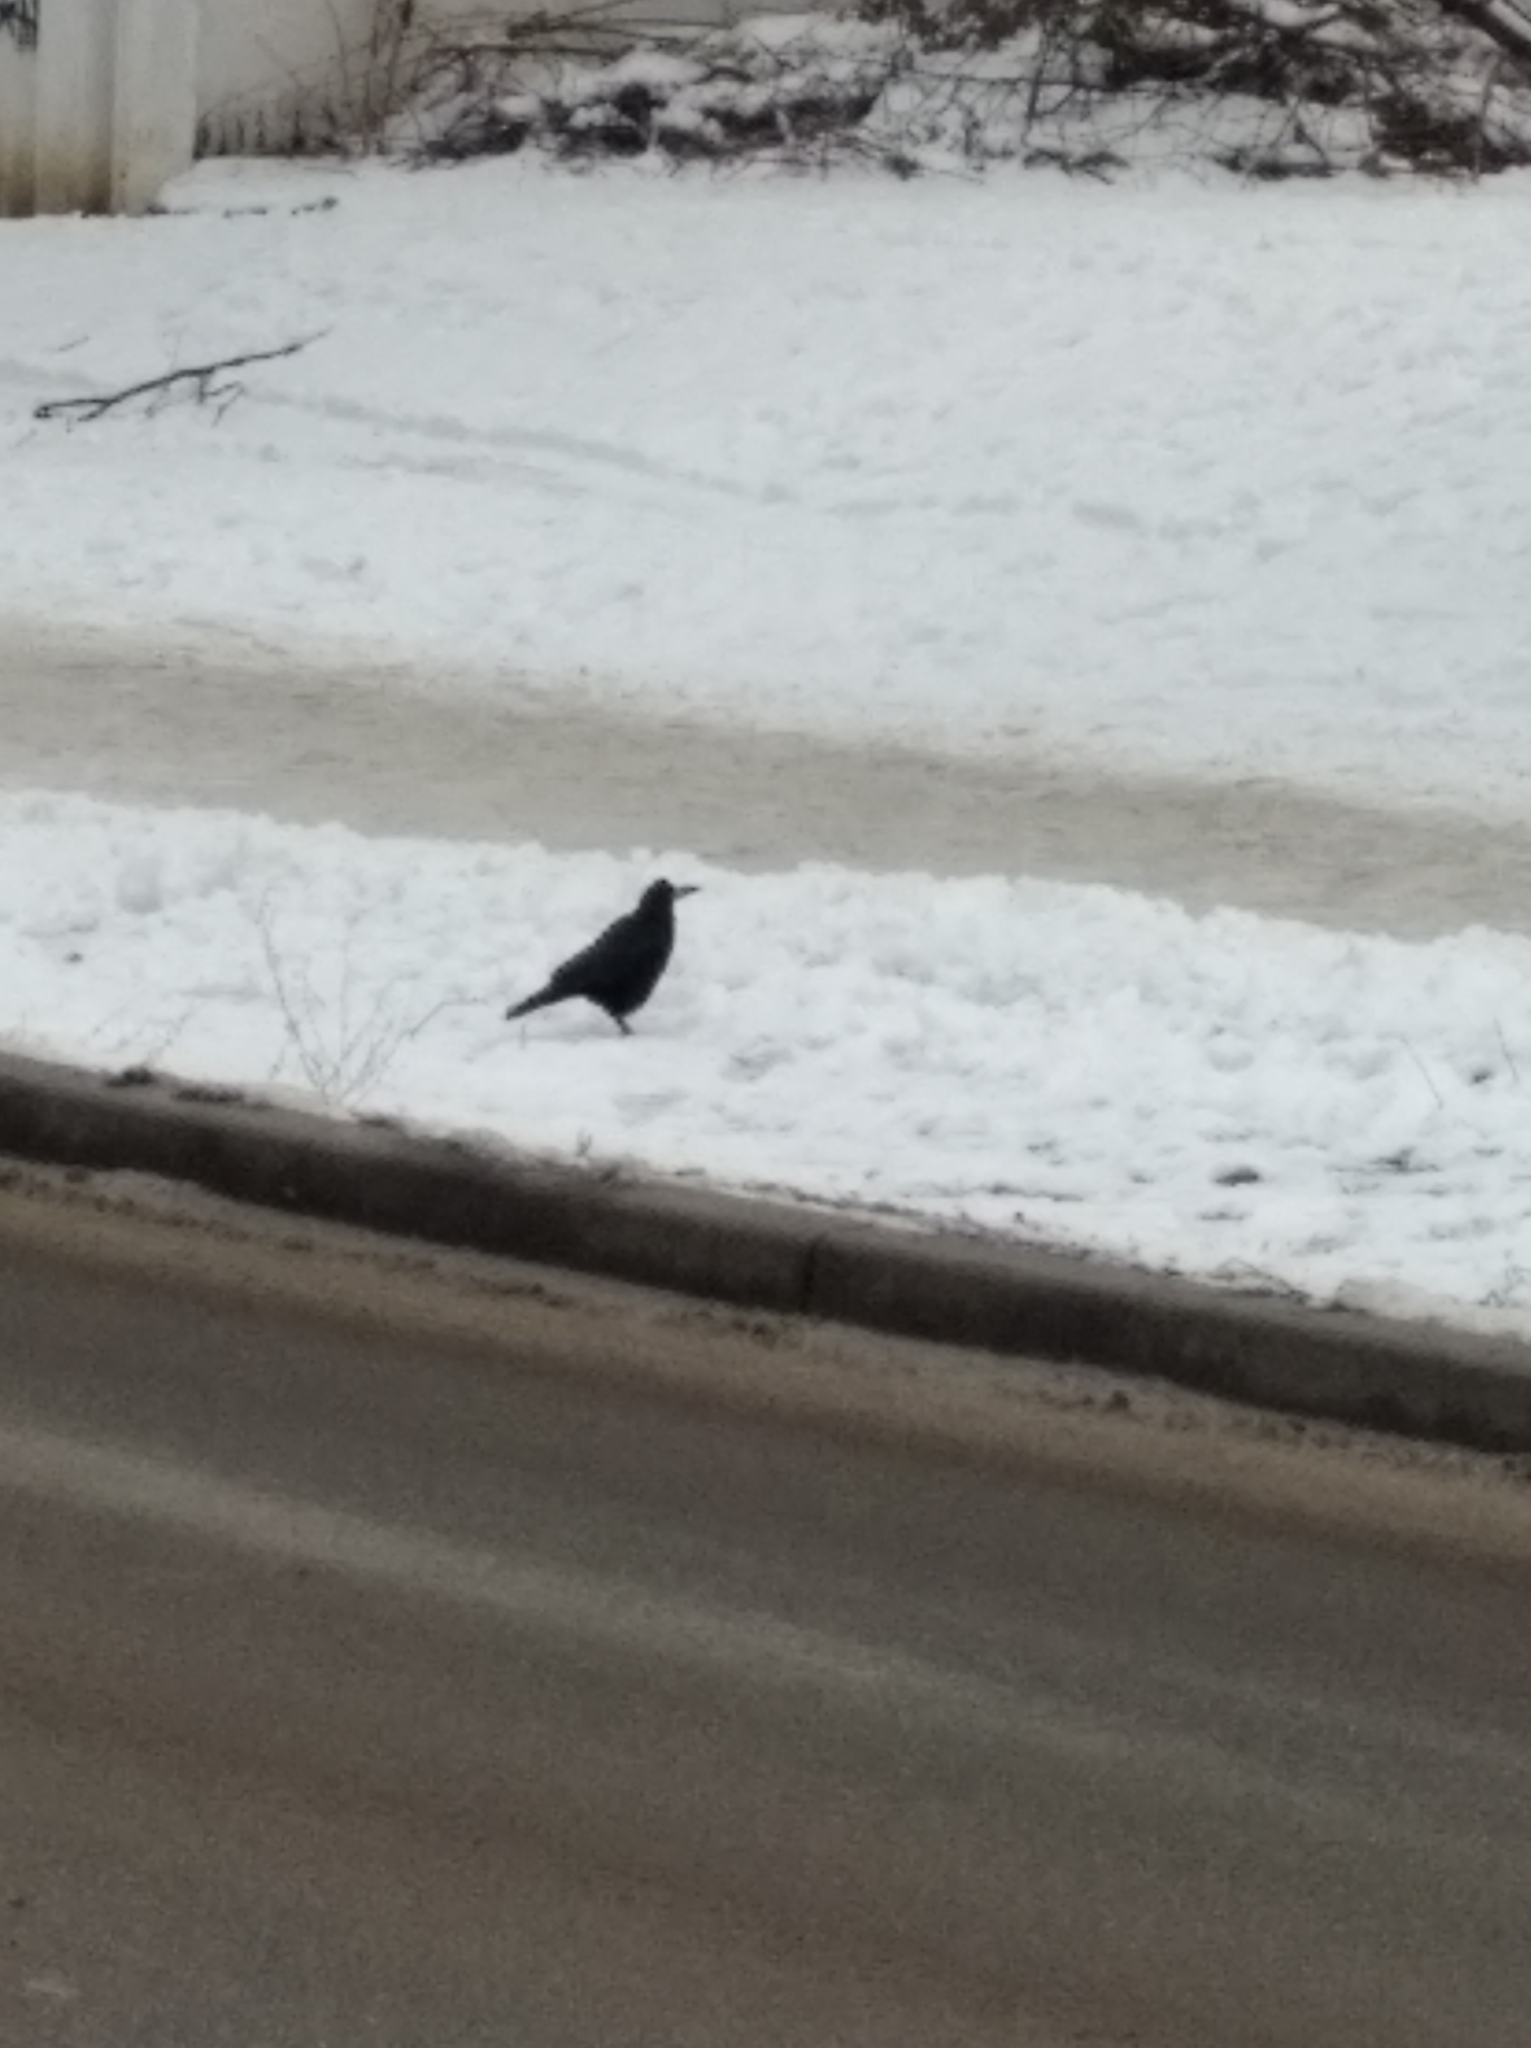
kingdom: Animalia
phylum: Chordata
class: Aves
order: Passeriformes
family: Corvidae
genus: Corvus
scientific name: Corvus frugilegus
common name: Rook
